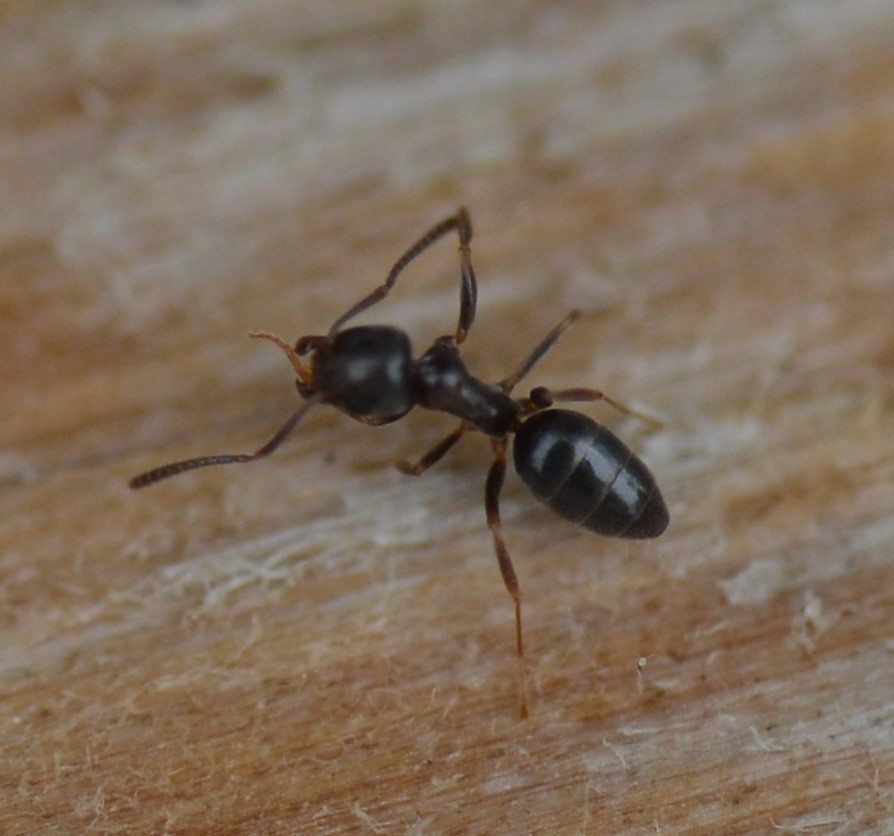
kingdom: Animalia
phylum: Arthropoda
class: Insecta
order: Hymenoptera
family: Formicidae
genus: Tapinoma
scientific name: Tapinoma sessile
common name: Odorous house ant
